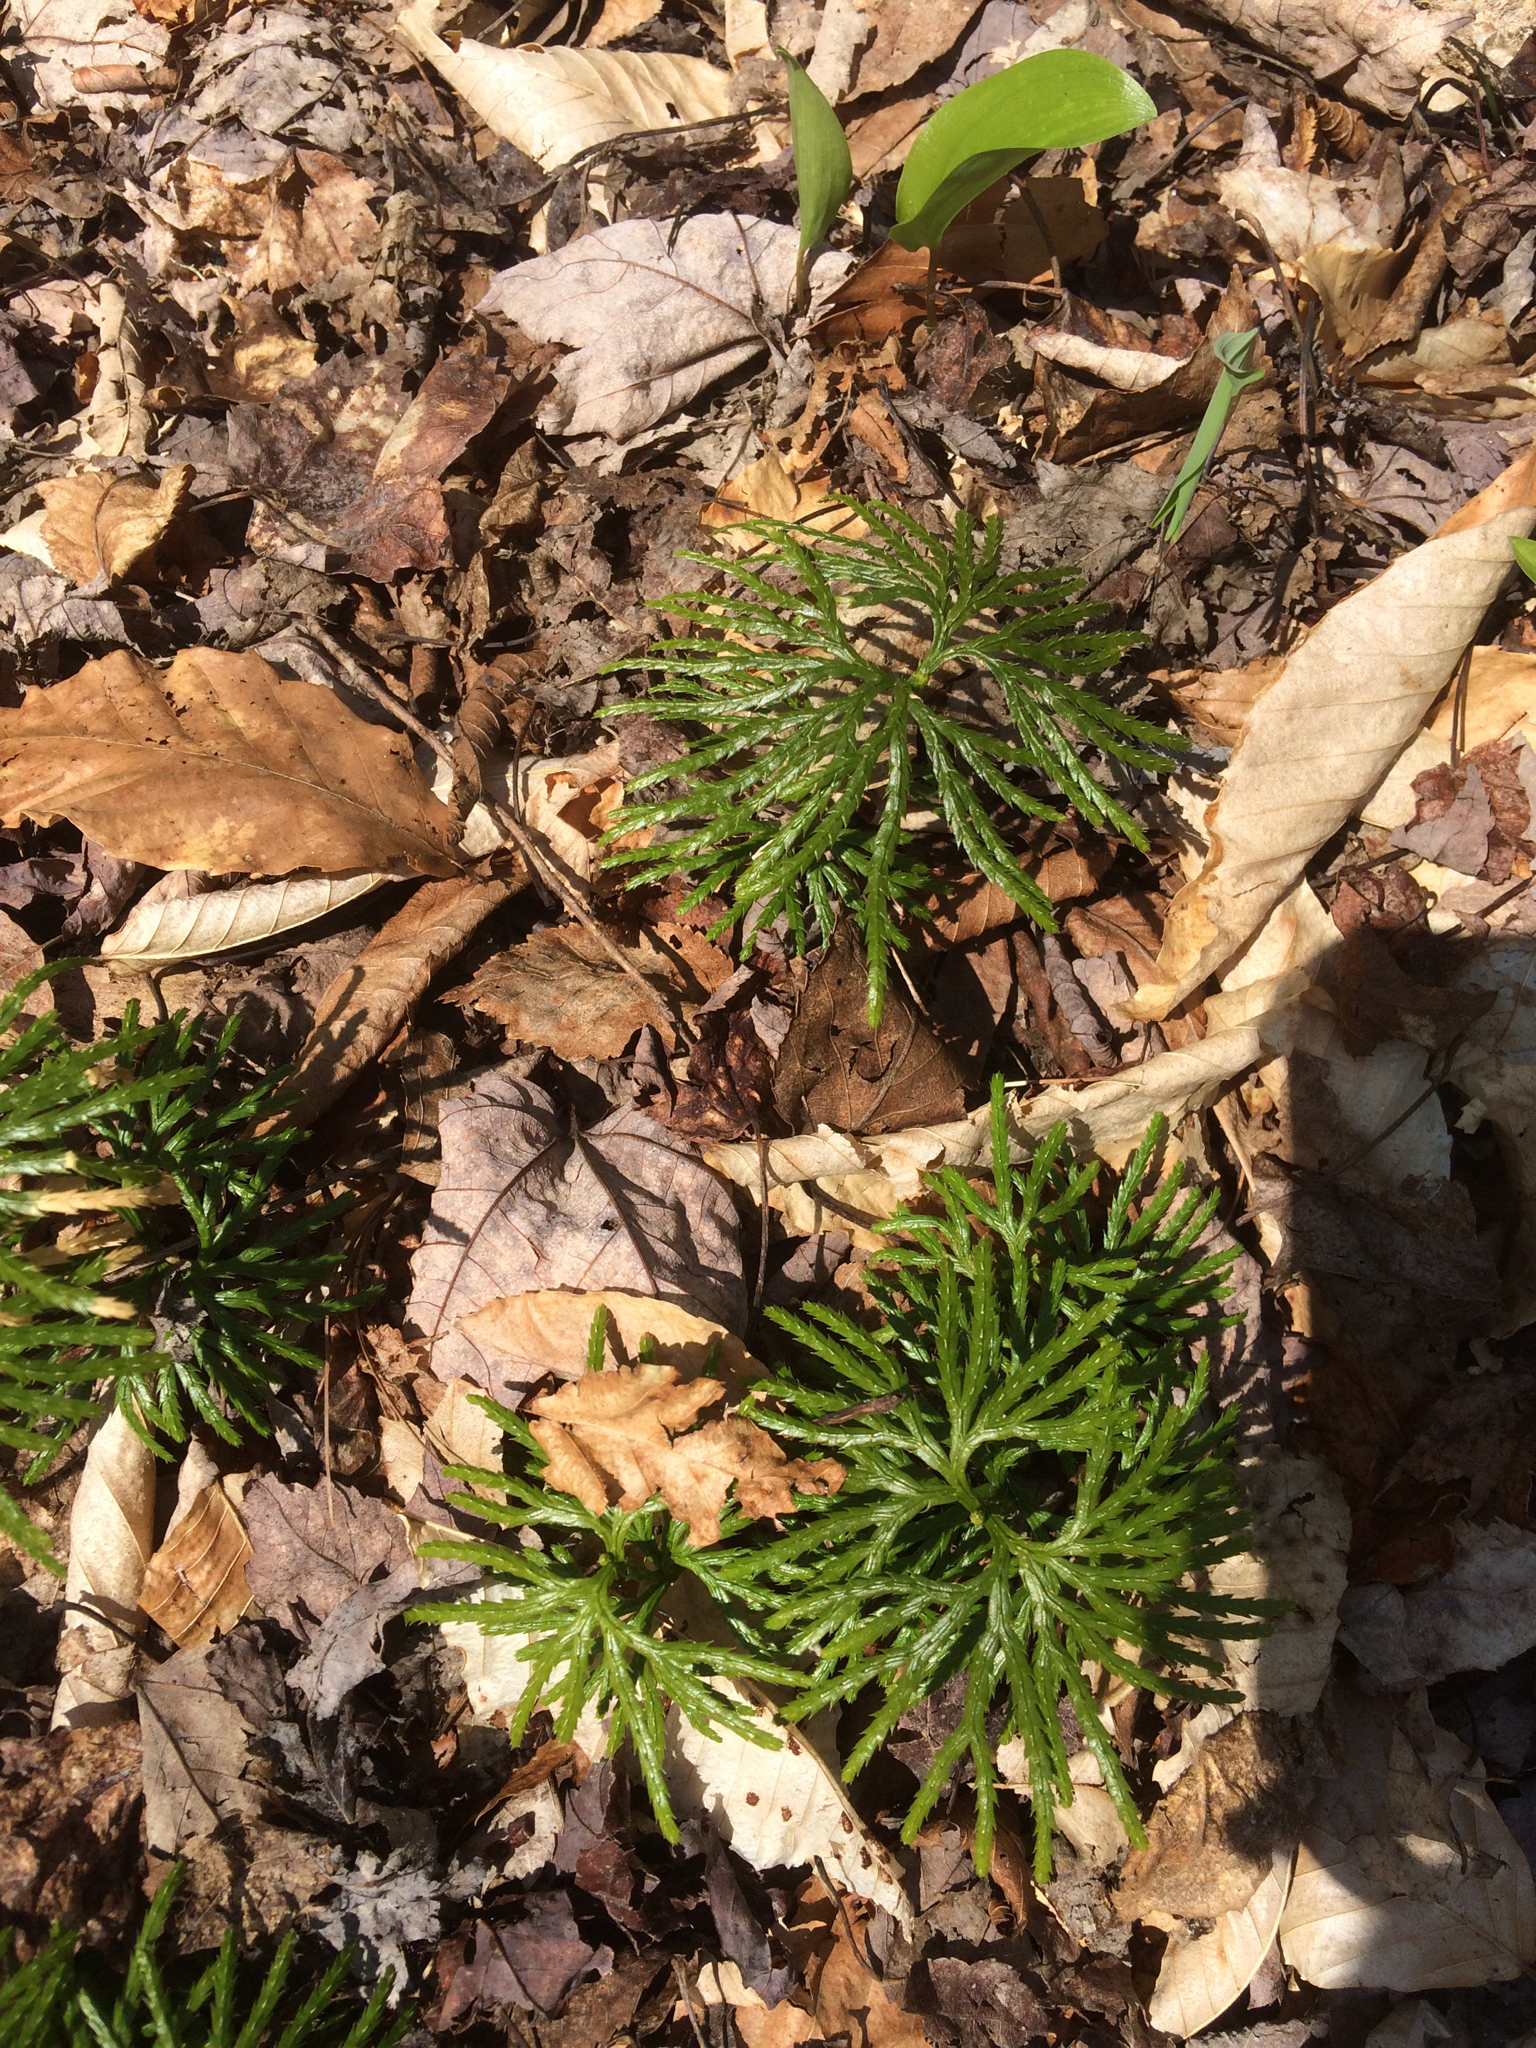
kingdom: Plantae
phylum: Tracheophyta
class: Lycopodiopsida
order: Lycopodiales
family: Lycopodiaceae
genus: Diphasiastrum
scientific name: Diphasiastrum digitatum
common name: Southern running-pine
